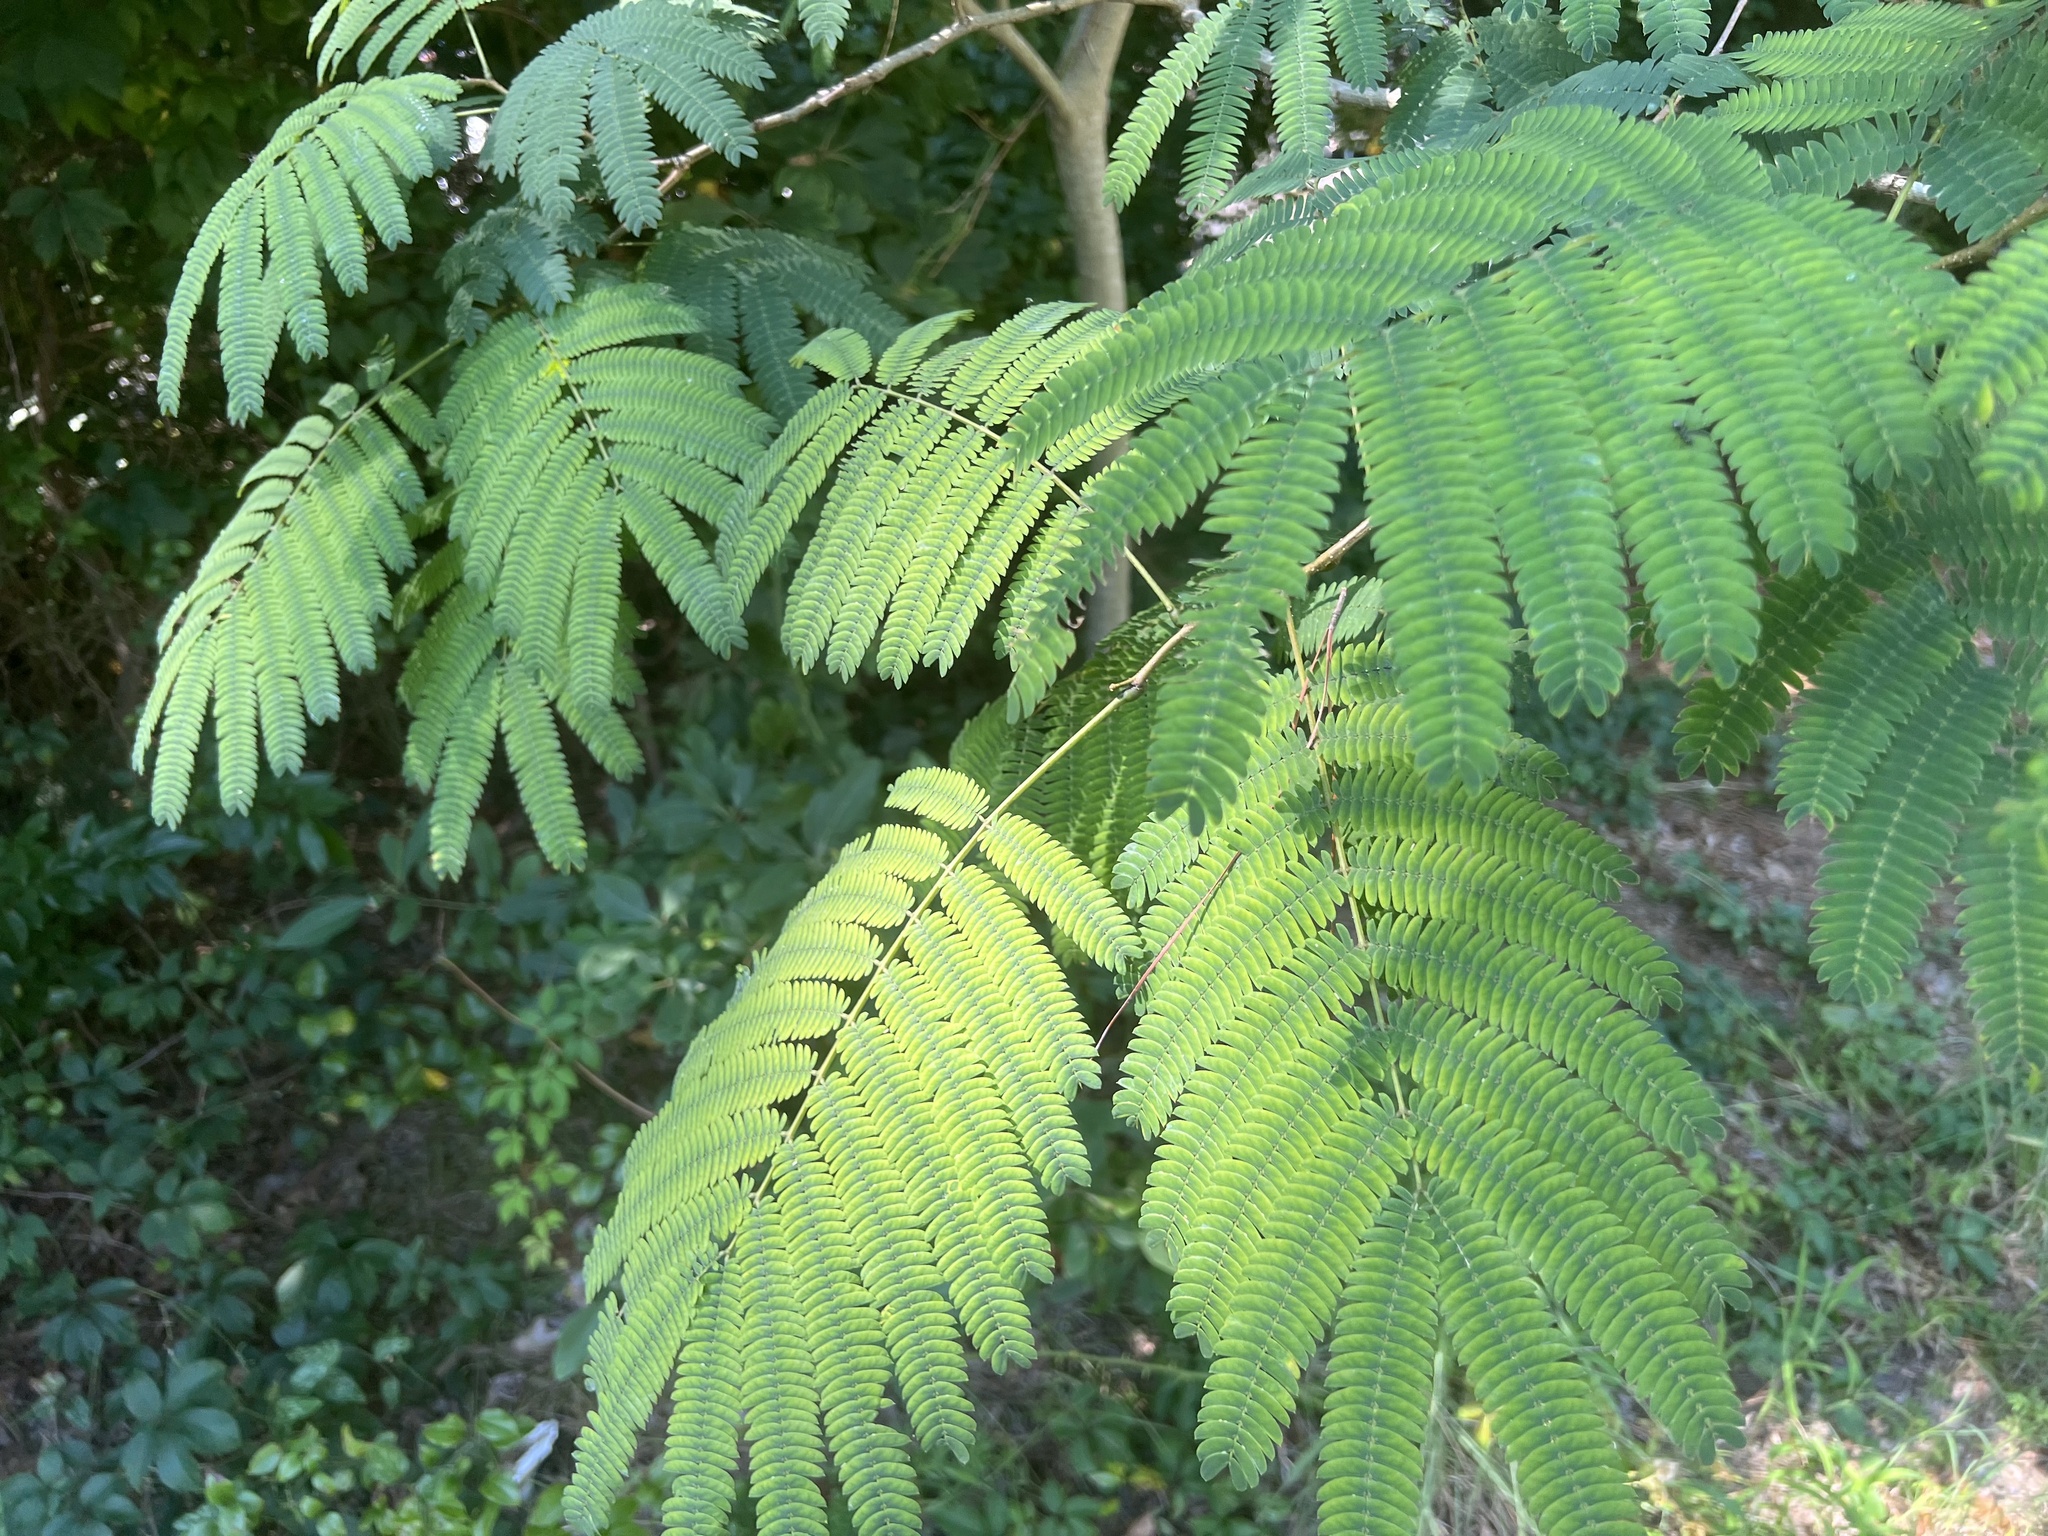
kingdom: Plantae
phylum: Tracheophyta
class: Magnoliopsida
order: Fabales
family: Fabaceae
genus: Albizia
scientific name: Albizia julibrissin
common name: Silktree
